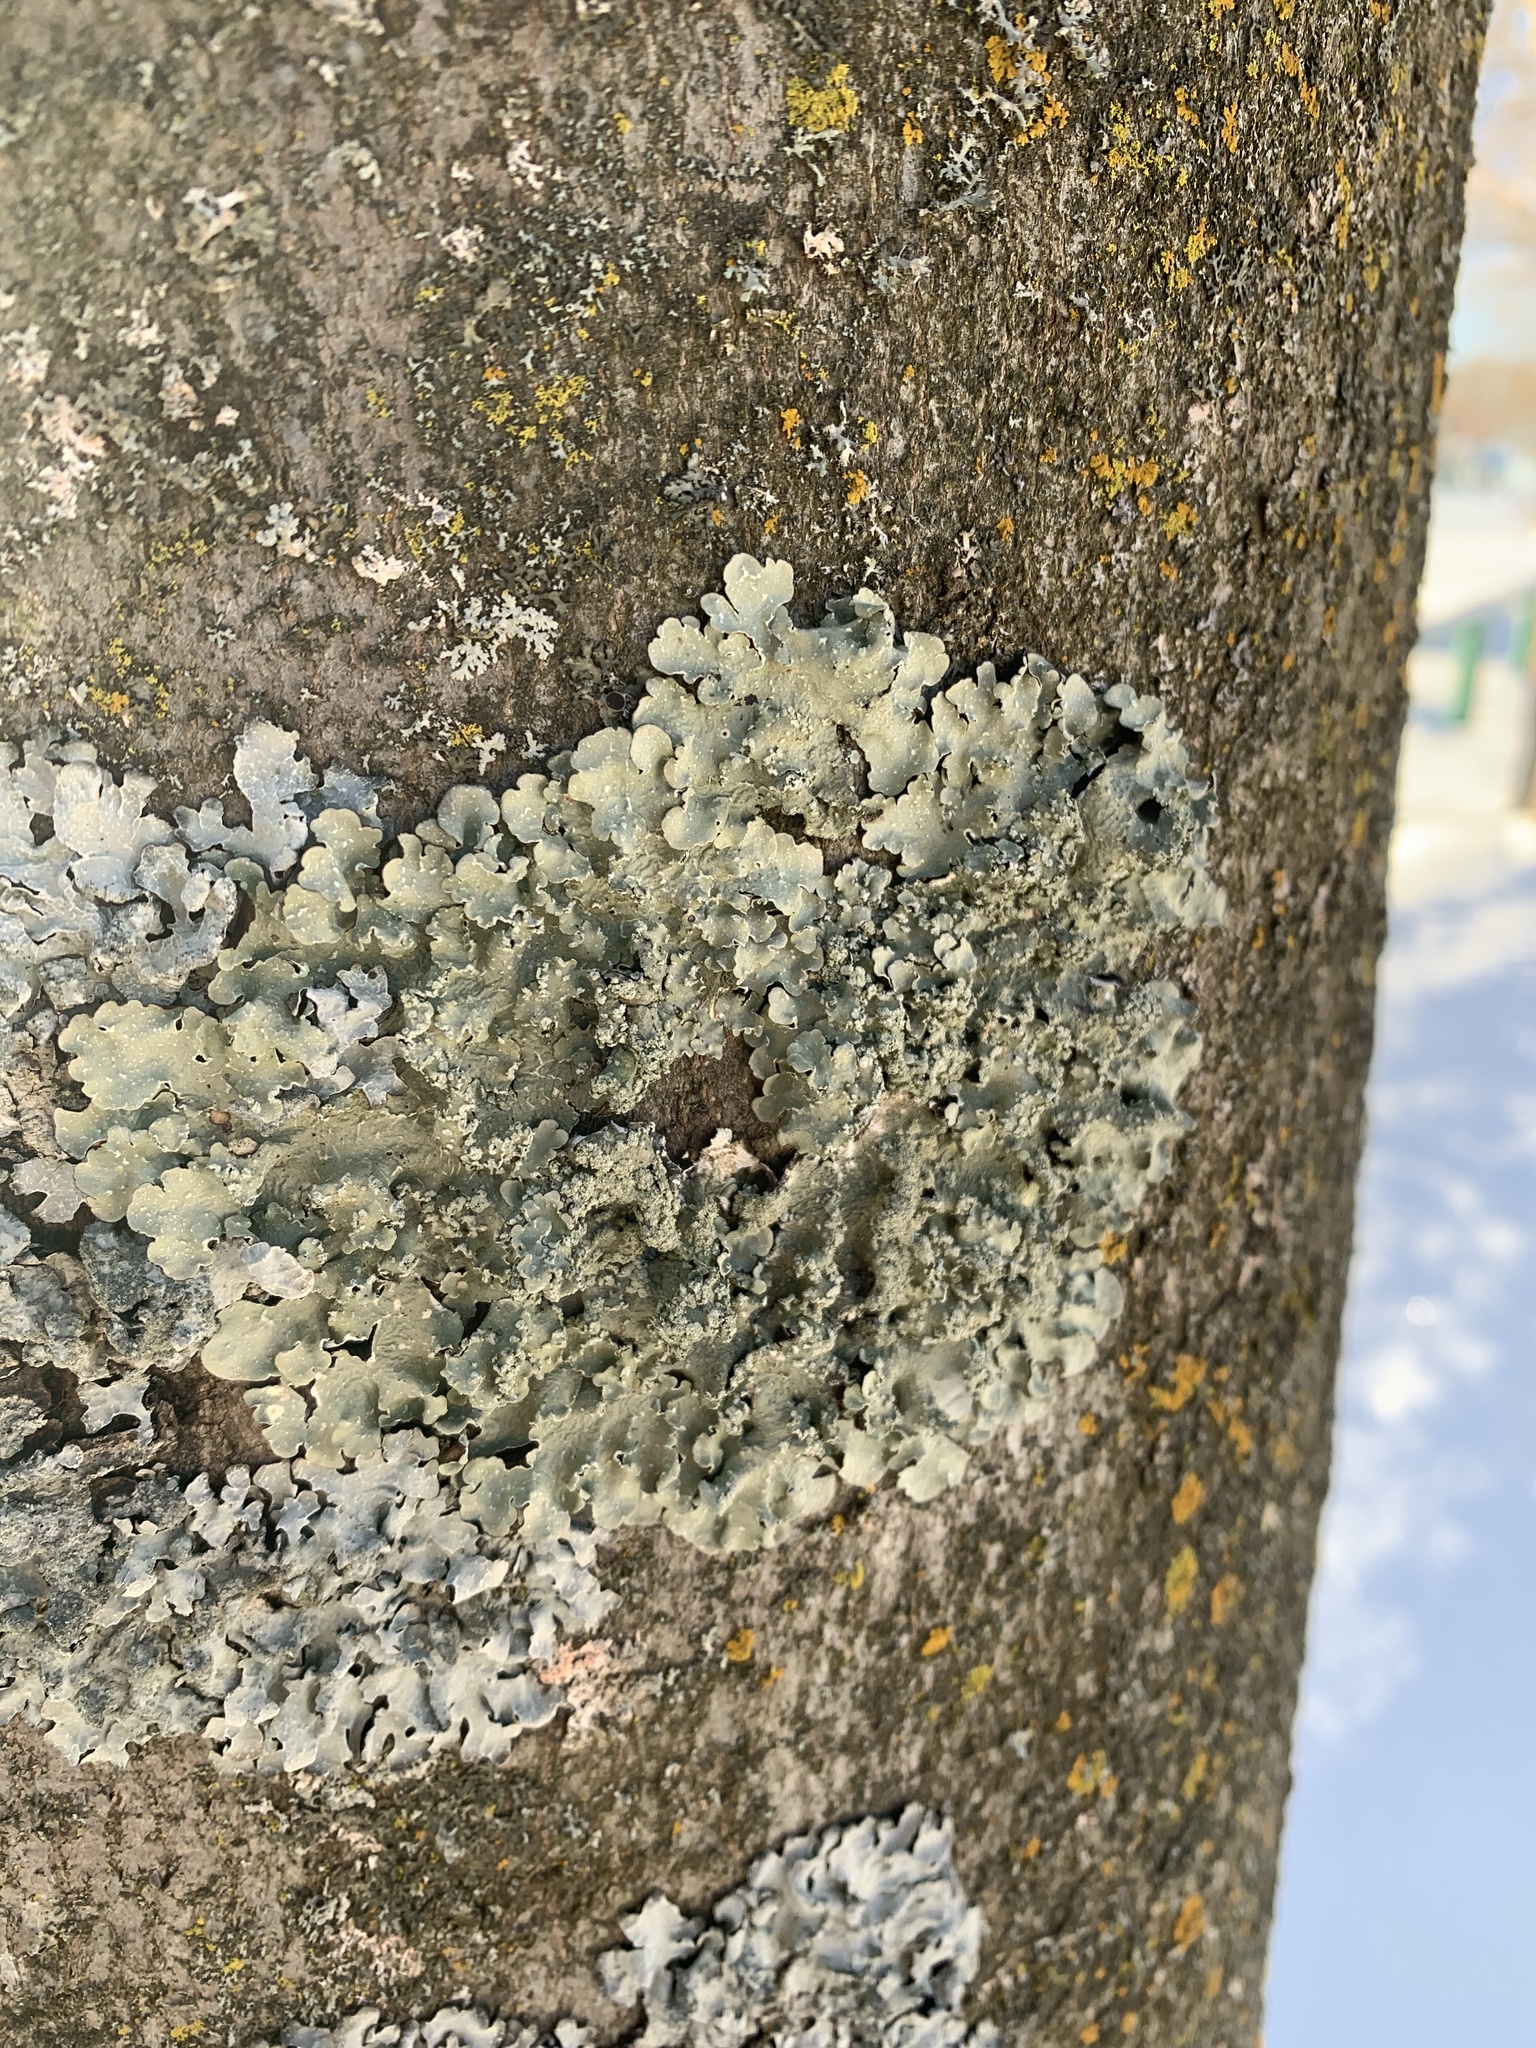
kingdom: Fungi
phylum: Ascomycota
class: Lecanoromycetes
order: Lecanorales
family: Parmeliaceae
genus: Flavopunctelia
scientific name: Flavopunctelia flaventior
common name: Speckled greenshield
